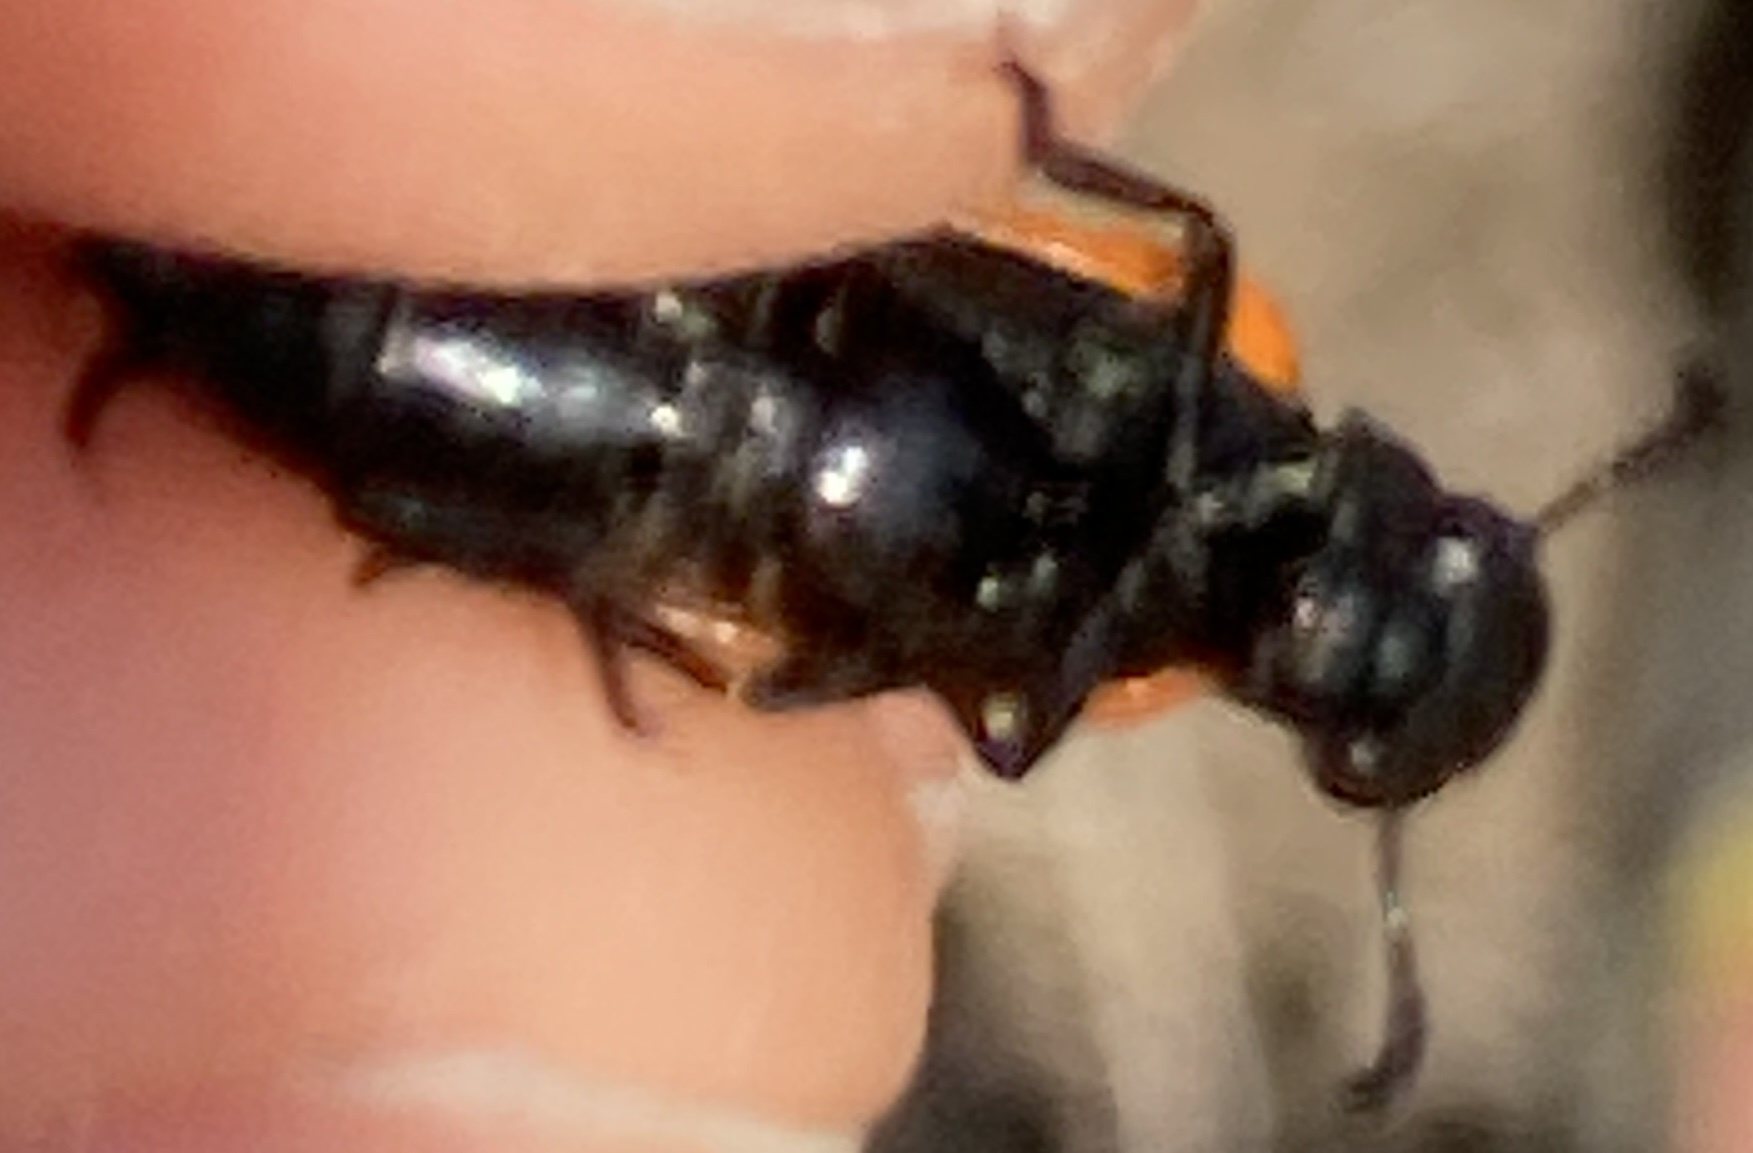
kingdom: Animalia
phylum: Arthropoda
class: Insecta
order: Coleoptera
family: Meloidae
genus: Mylabris
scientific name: Mylabris quadripunctata
